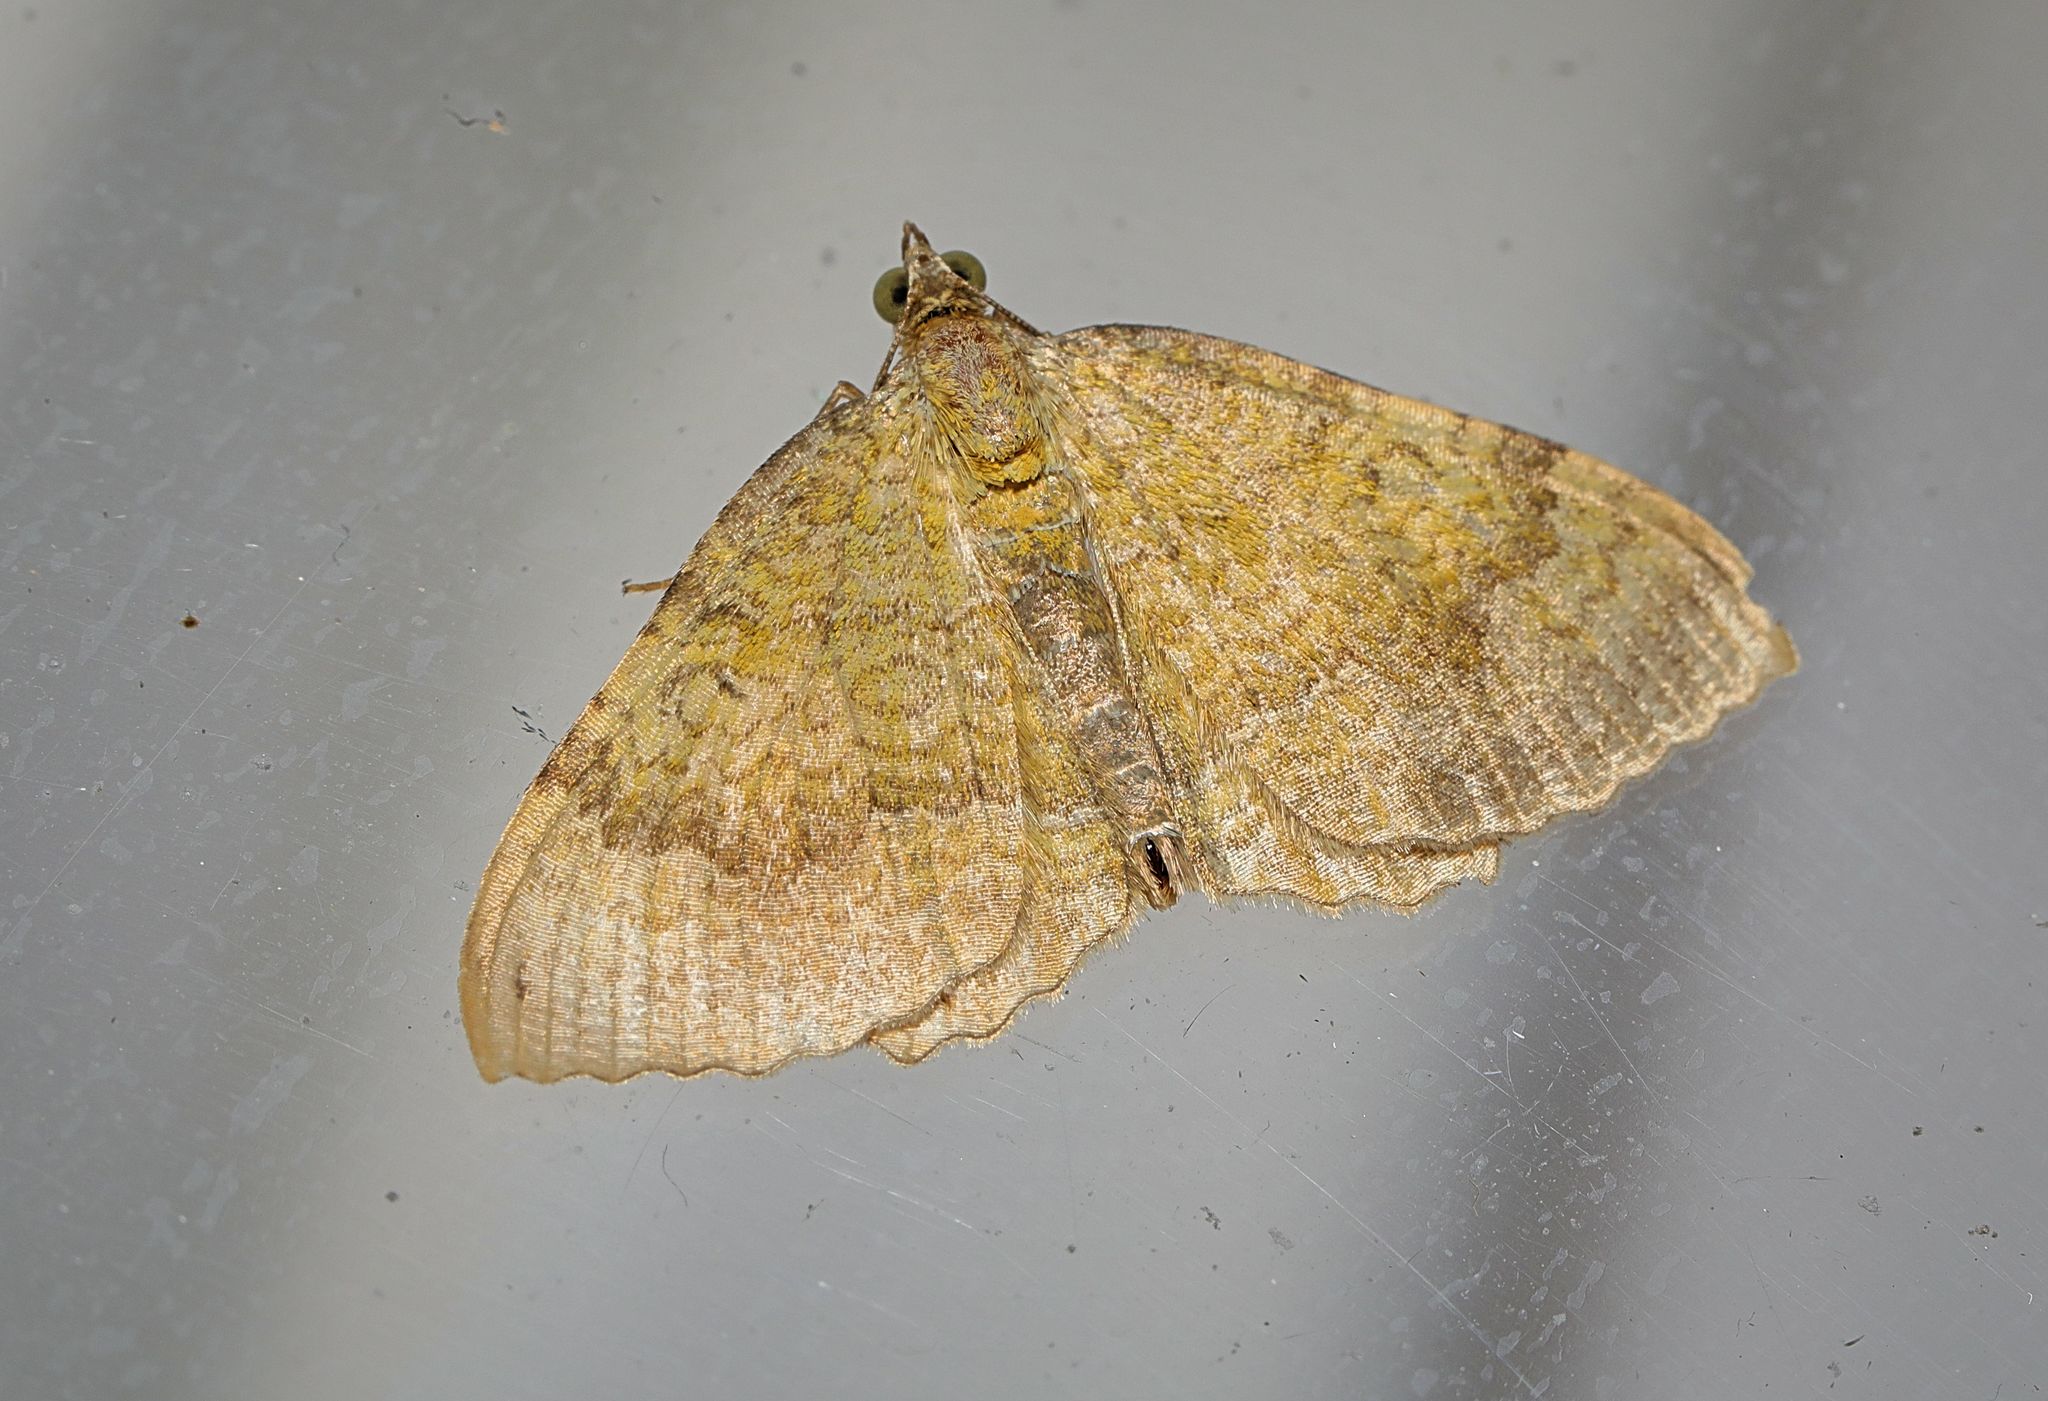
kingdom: Animalia
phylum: Arthropoda
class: Insecta
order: Lepidoptera
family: Geometridae
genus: Camptogramma
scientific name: Camptogramma bilineata
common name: Yellow shell
